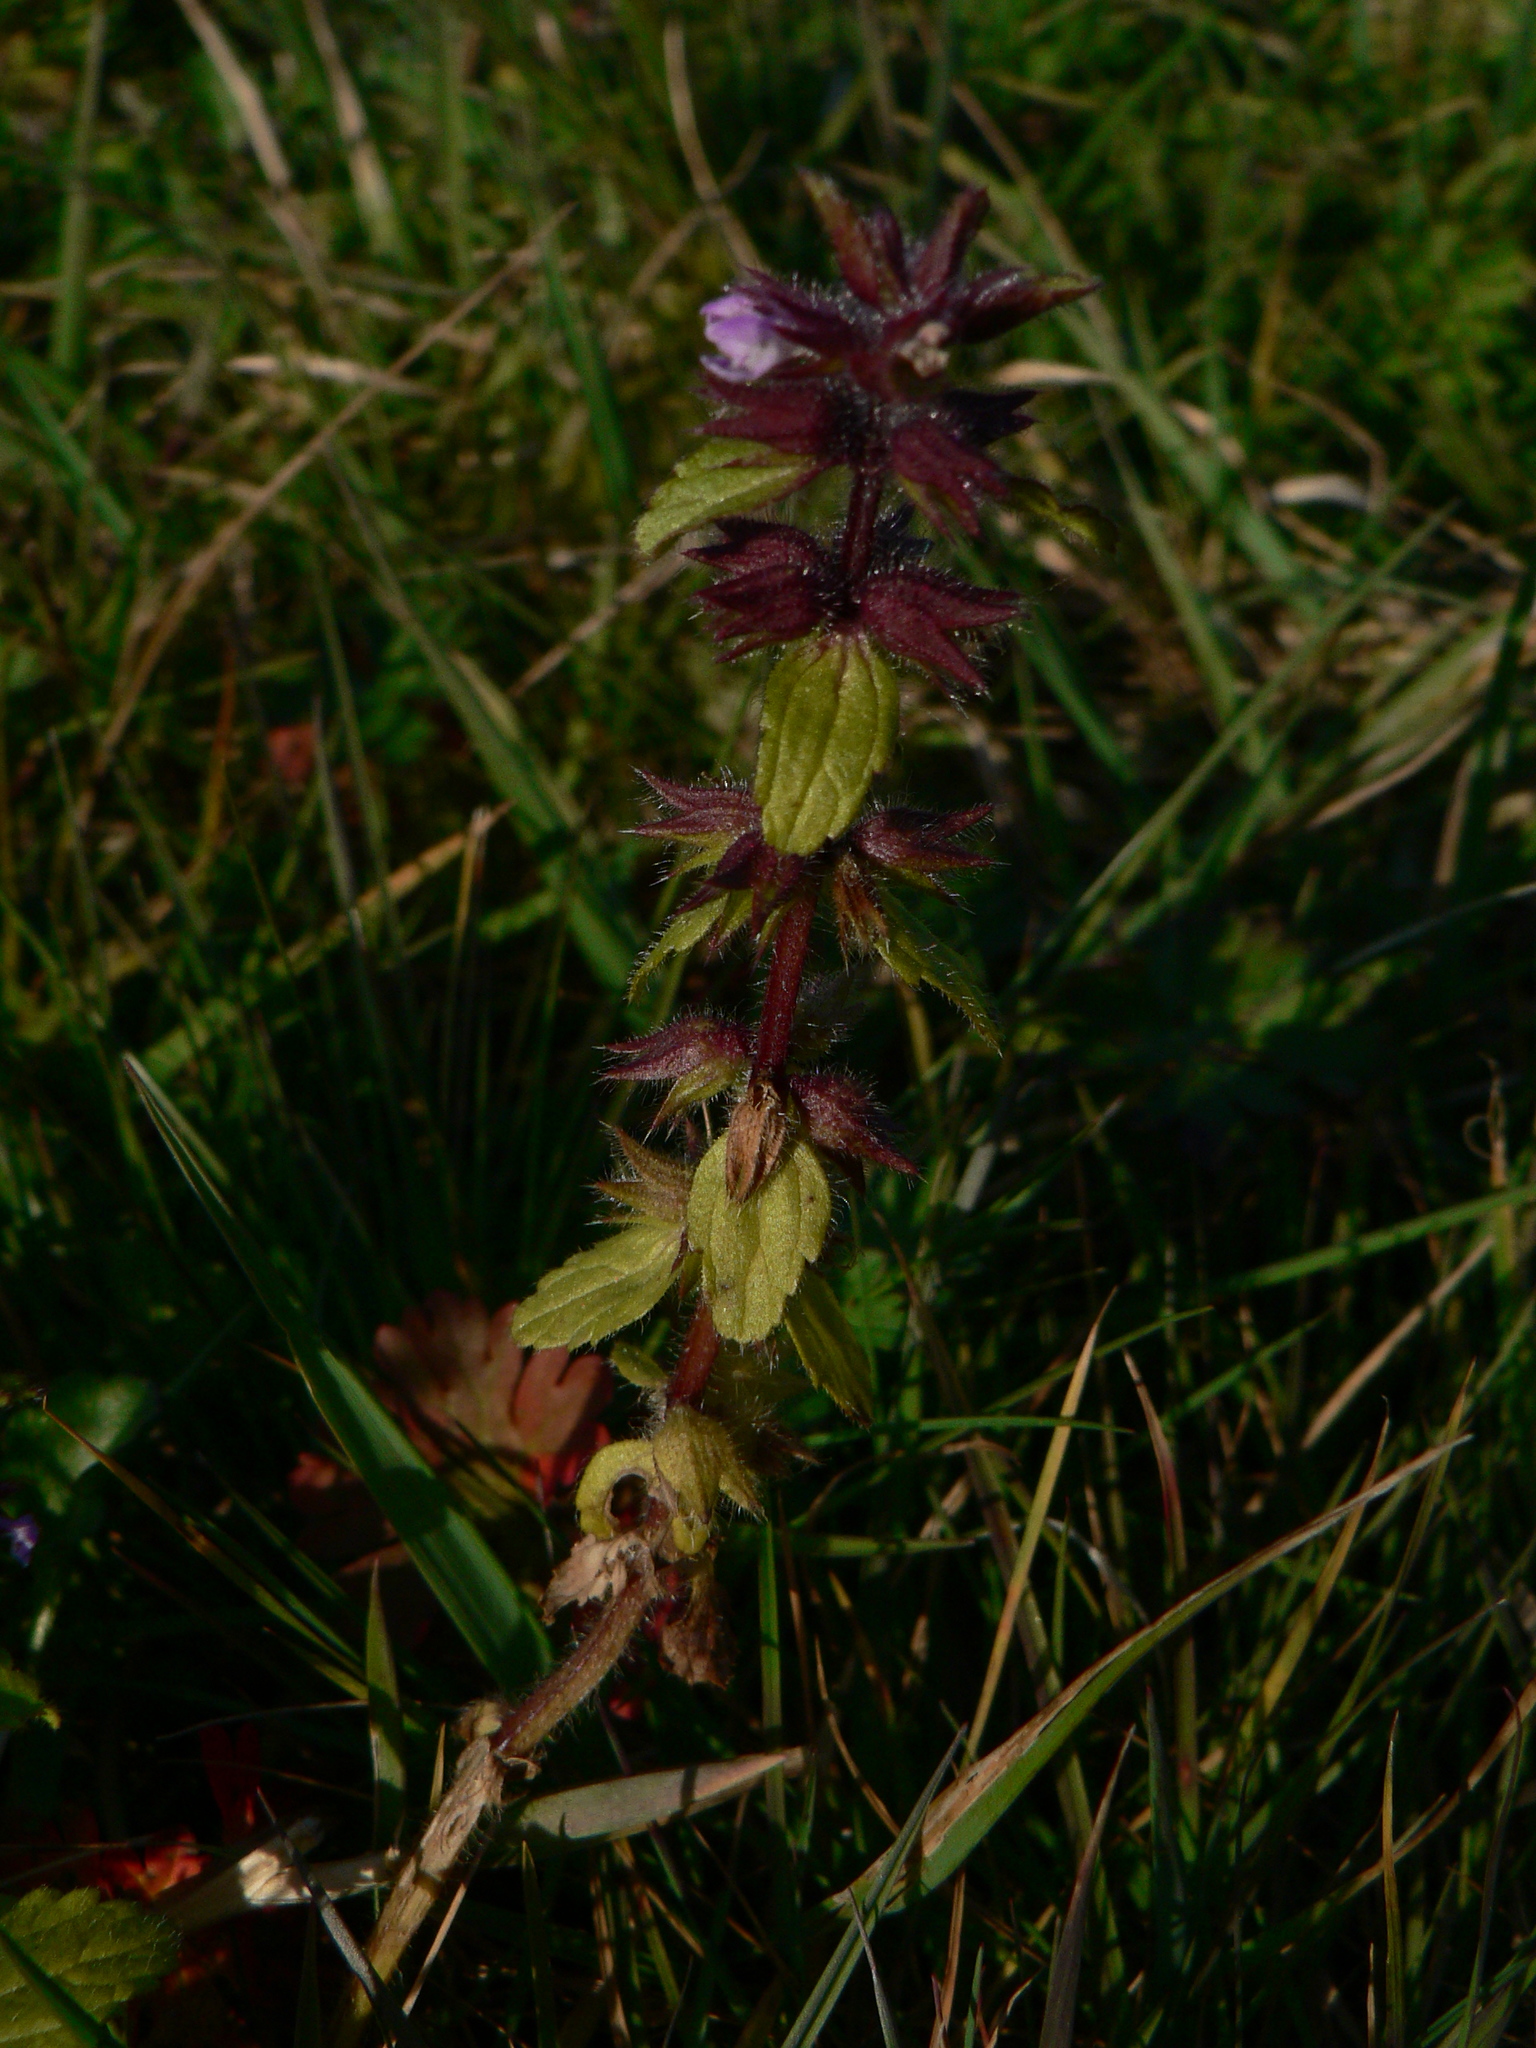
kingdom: Plantae
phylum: Tracheophyta
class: Magnoliopsida
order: Lamiales
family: Lamiaceae
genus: Stachys
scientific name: Stachys arvensis
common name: Field woundwort
